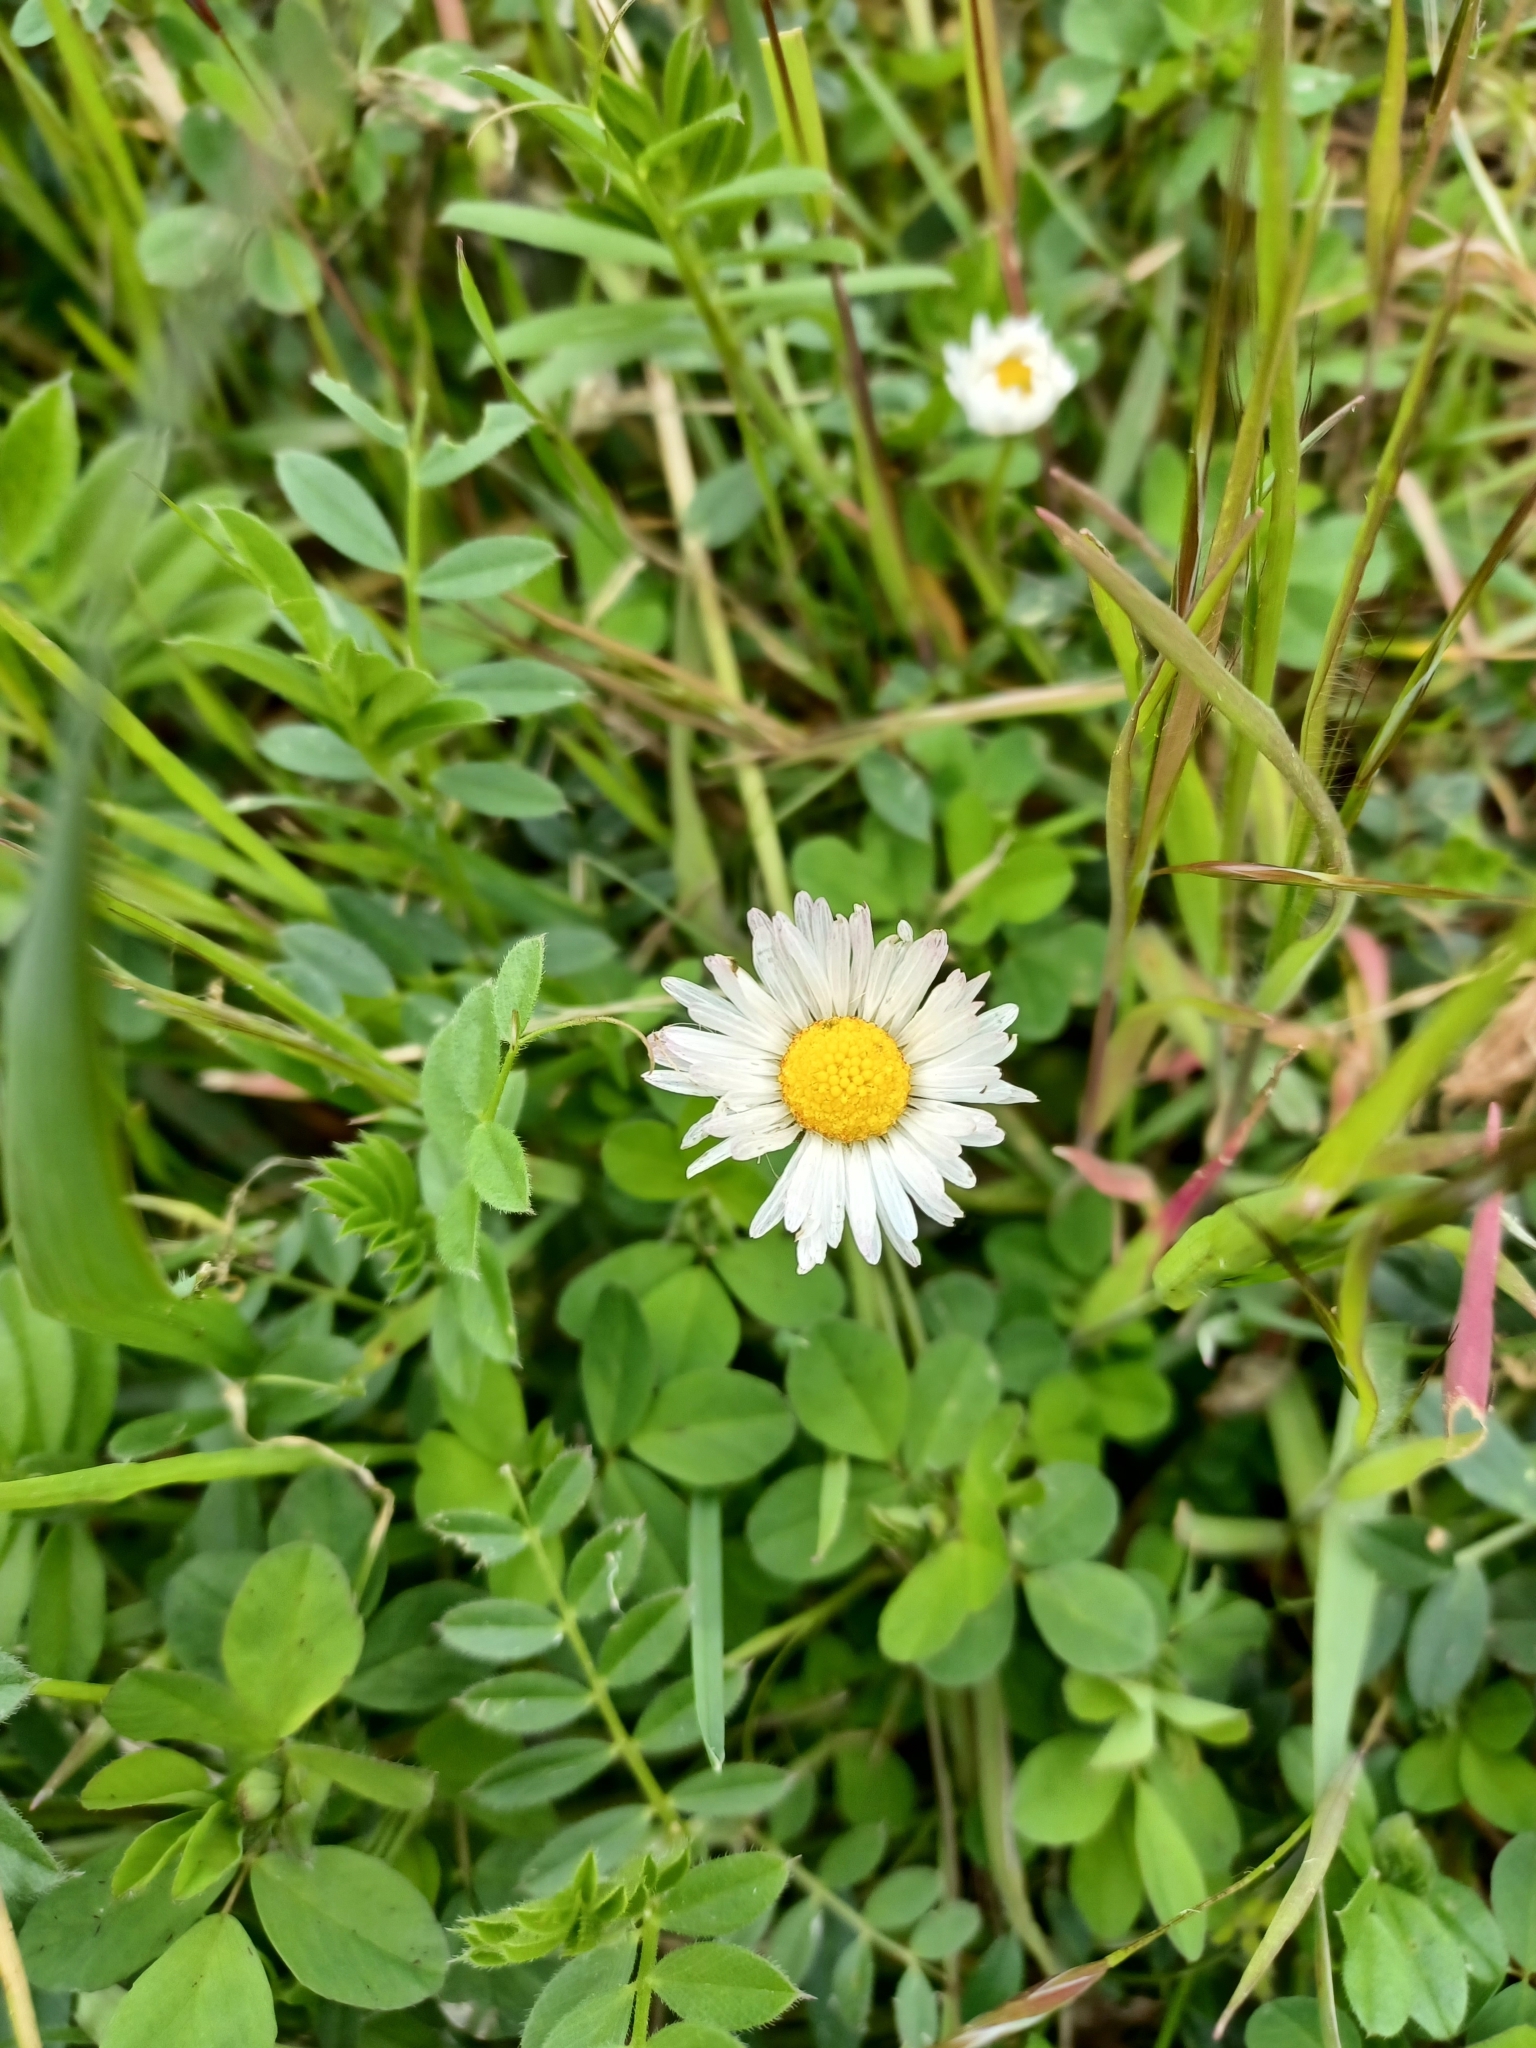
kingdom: Plantae
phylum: Tracheophyta
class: Magnoliopsida
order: Asterales
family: Asteraceae
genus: Bellis
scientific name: Bellis perennis
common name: Lawndaisy
